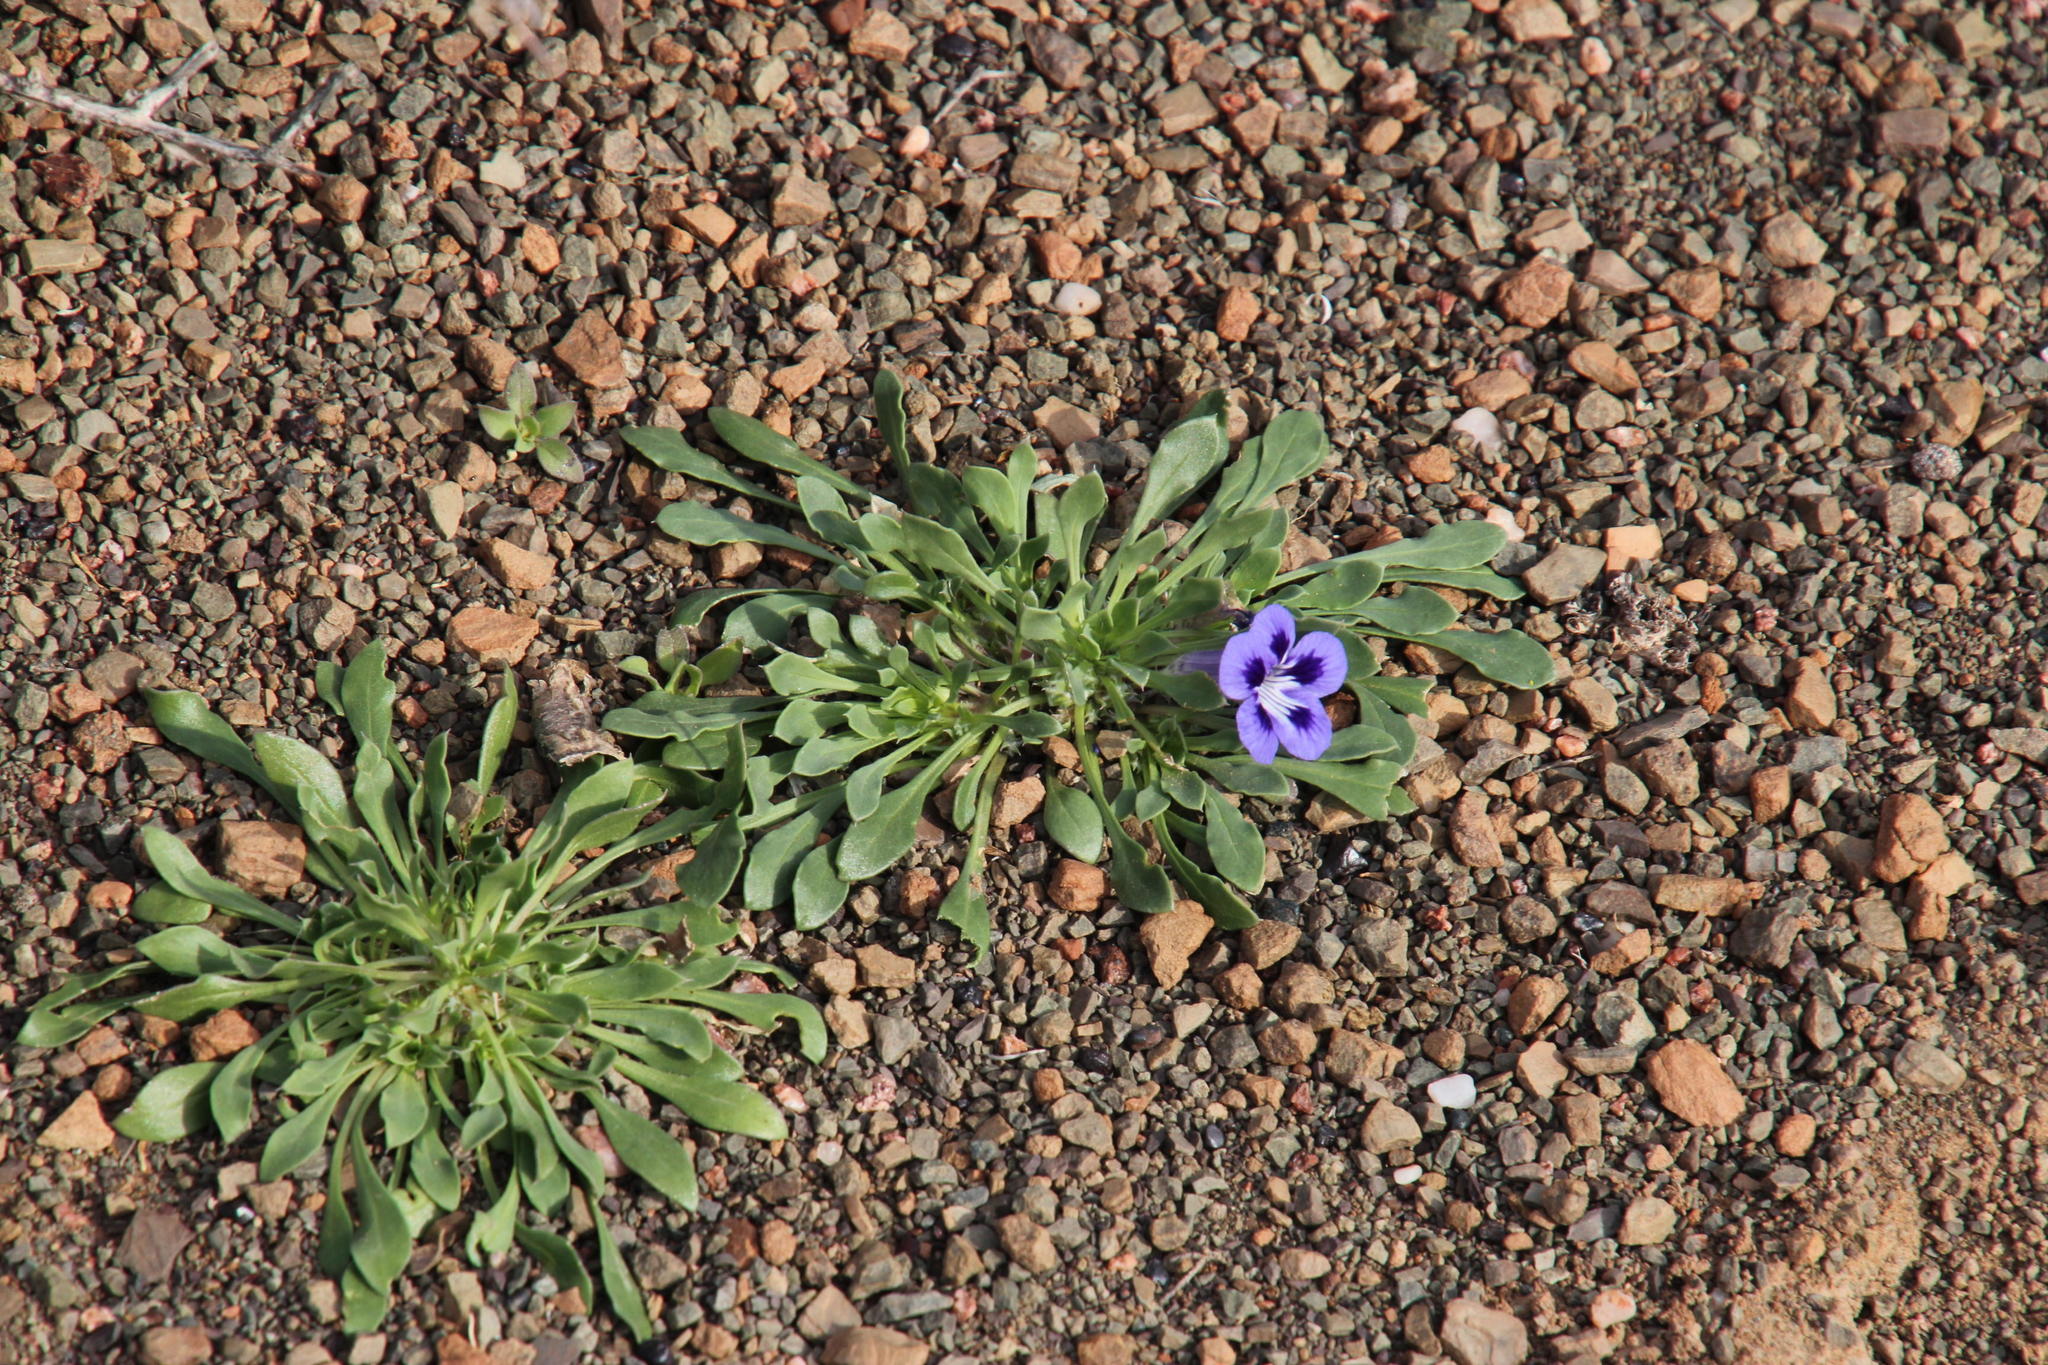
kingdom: Plantae
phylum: Tracheophyta
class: Magnoliopsida
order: Lamiales
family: Scrophulariaceae
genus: Aptosimum
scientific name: Aptosimum indivisum
